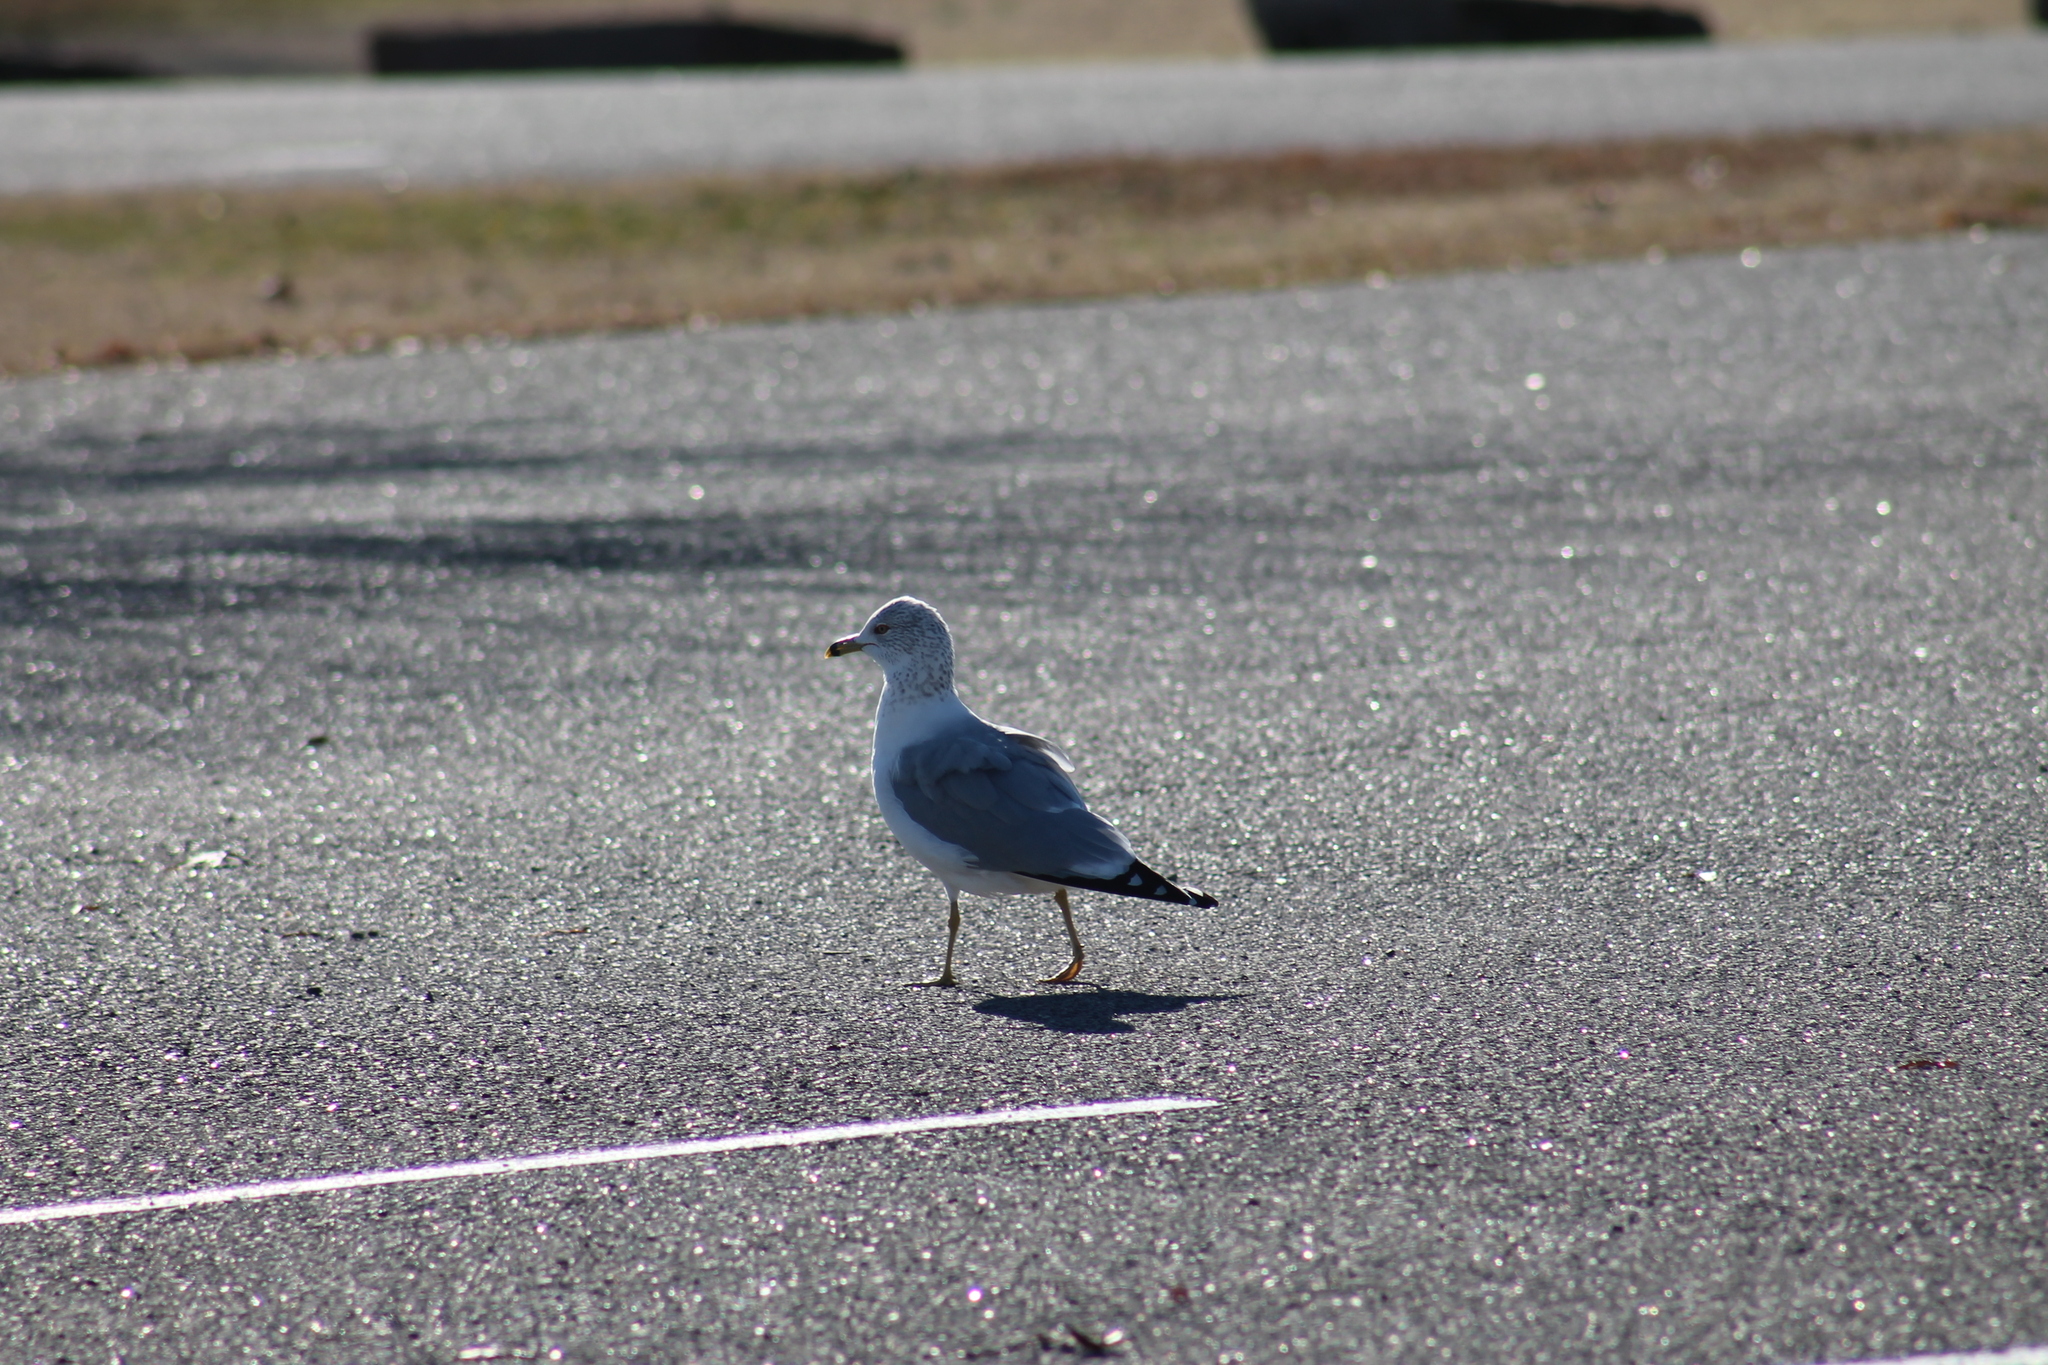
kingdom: Animalia
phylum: Chordata
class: Aves
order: Charadriiformes
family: Laridae
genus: Larus
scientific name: Larus delawarensis
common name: Ring-billed gull
